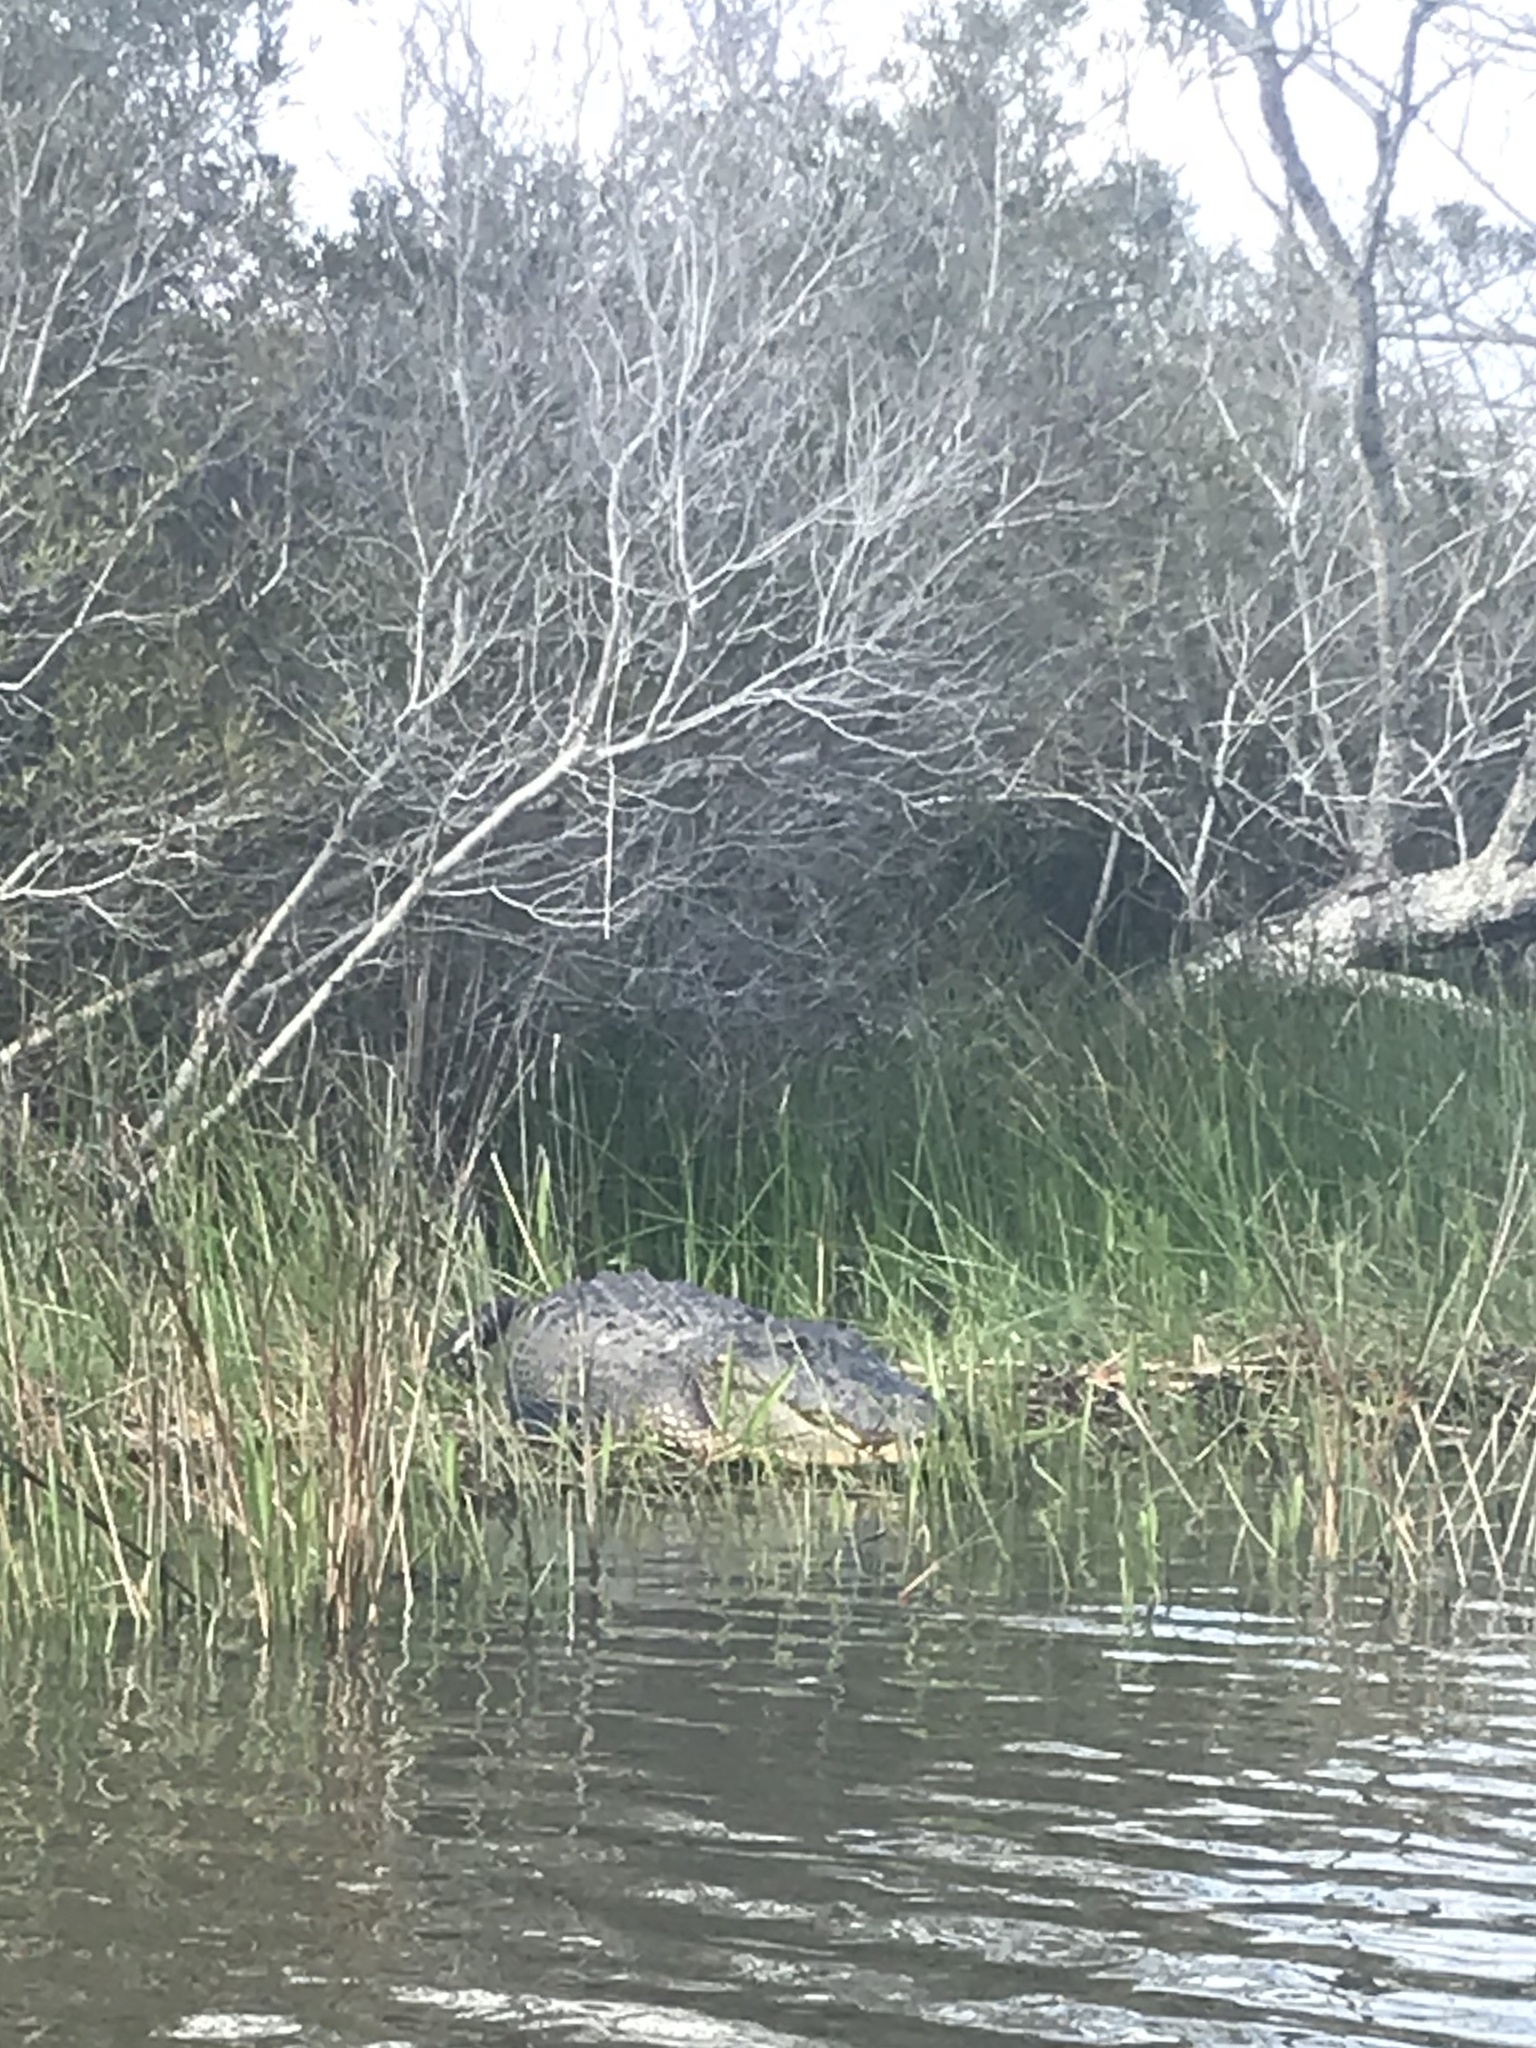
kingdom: Animalia
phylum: Chordata
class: Crocodylia
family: Alligatoridae
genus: Alligator
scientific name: Alligator mississippiensis
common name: American alligator
